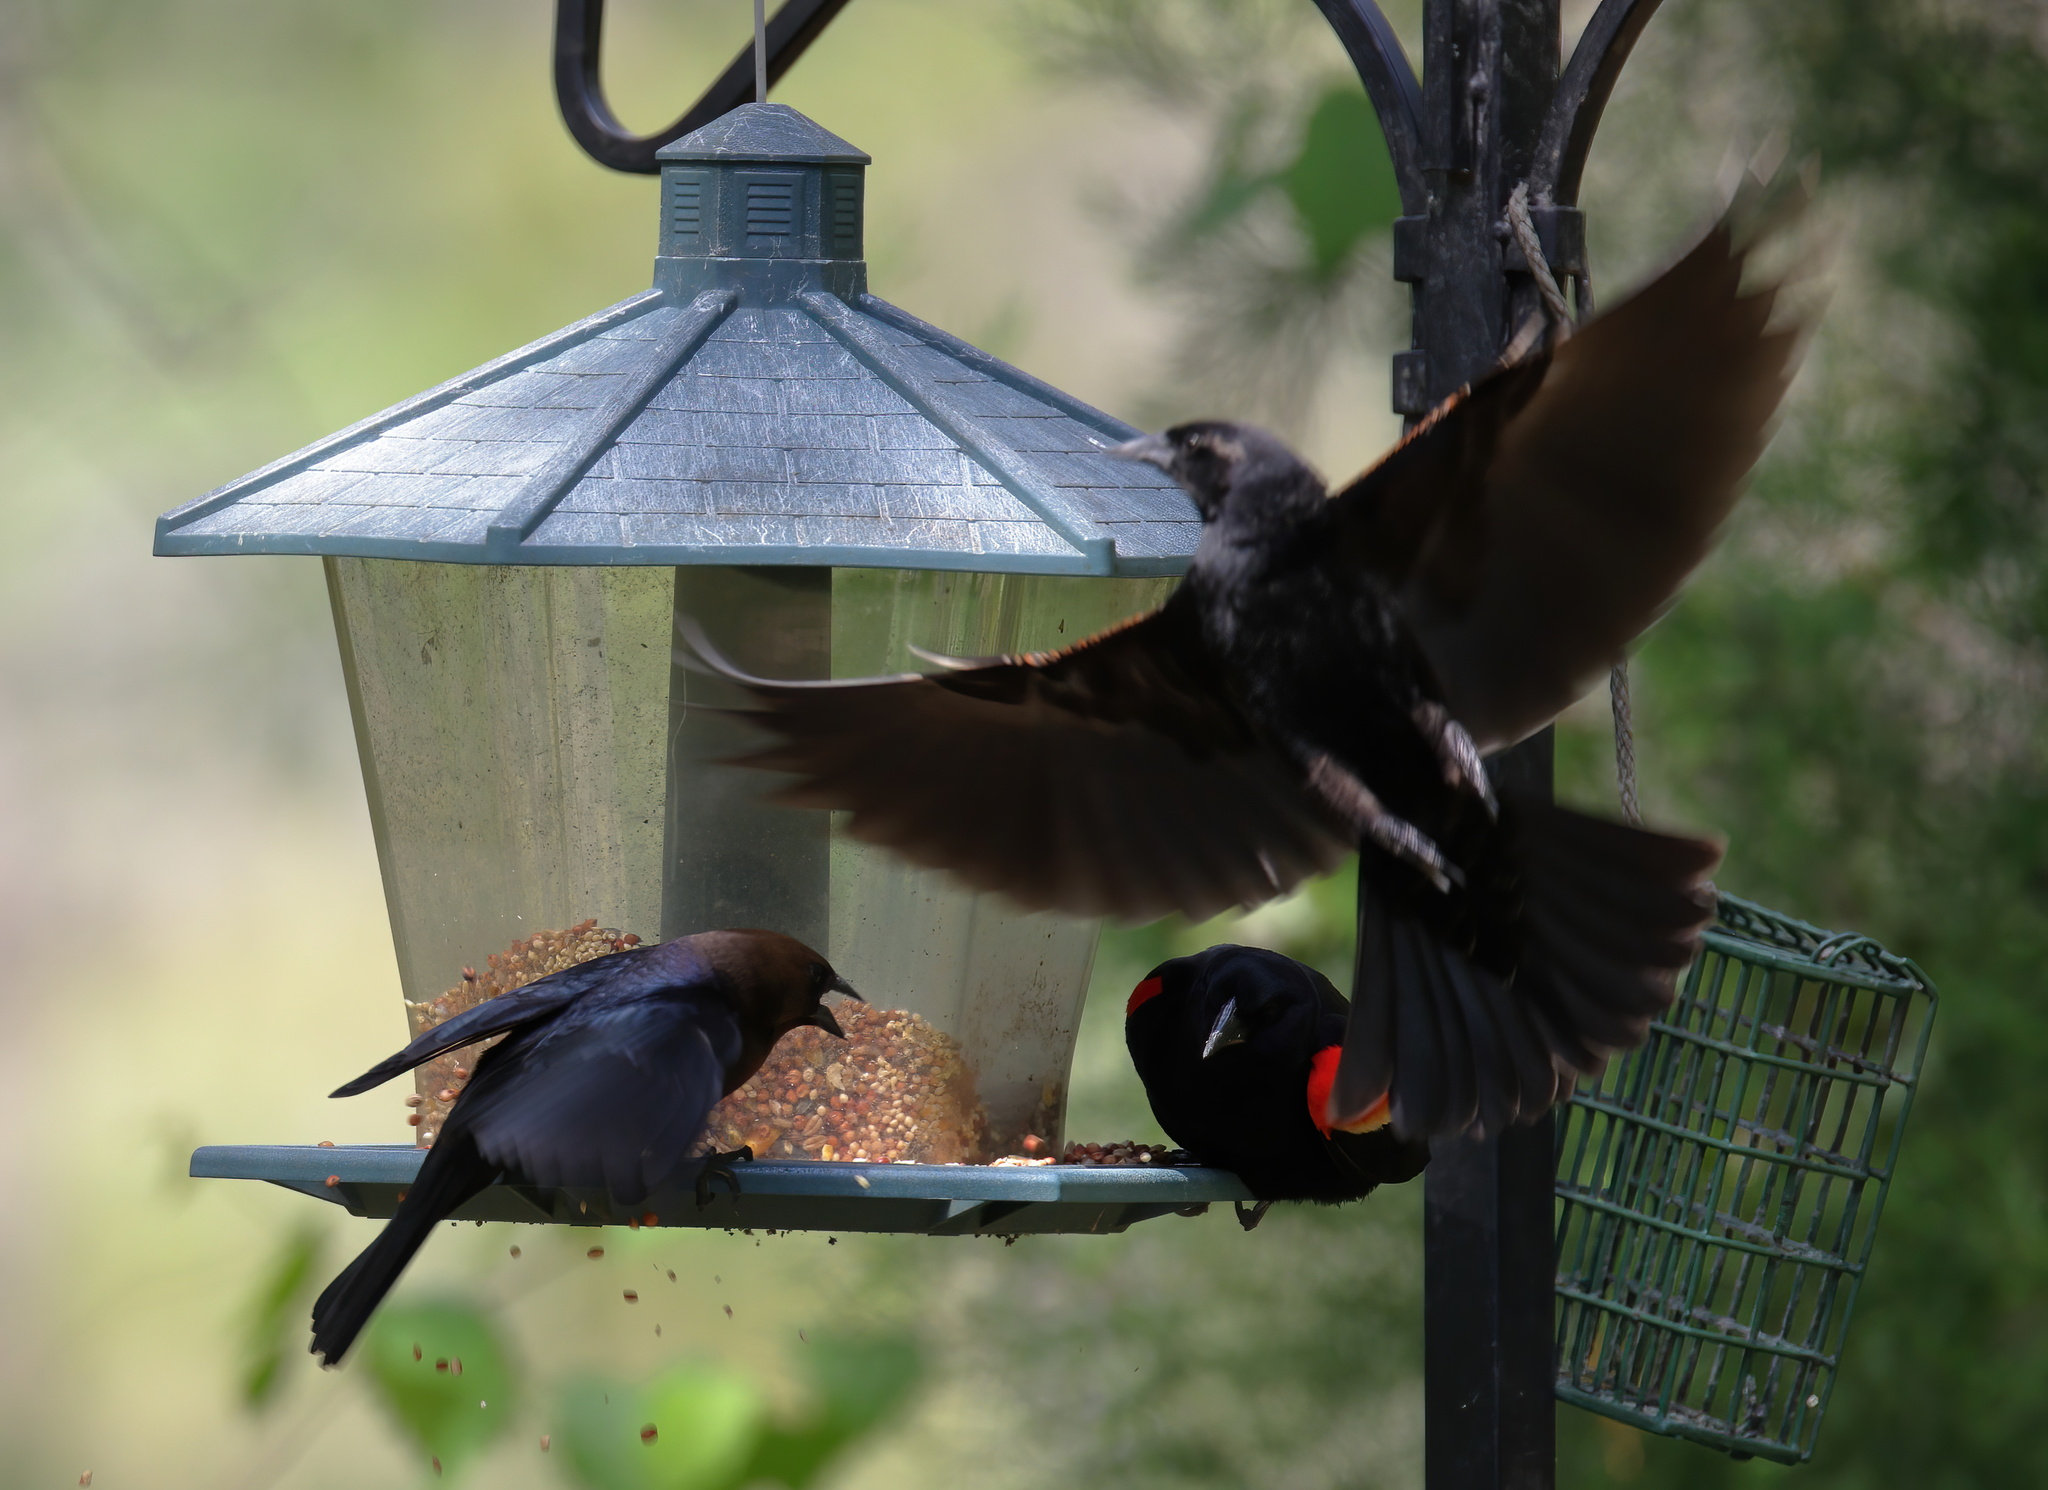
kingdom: Animalia
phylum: Chordata
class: Aves
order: Passeriformes
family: Icteridae
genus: Agelaius
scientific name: Agelaius phoeniceus
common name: Red-winged blackbird
